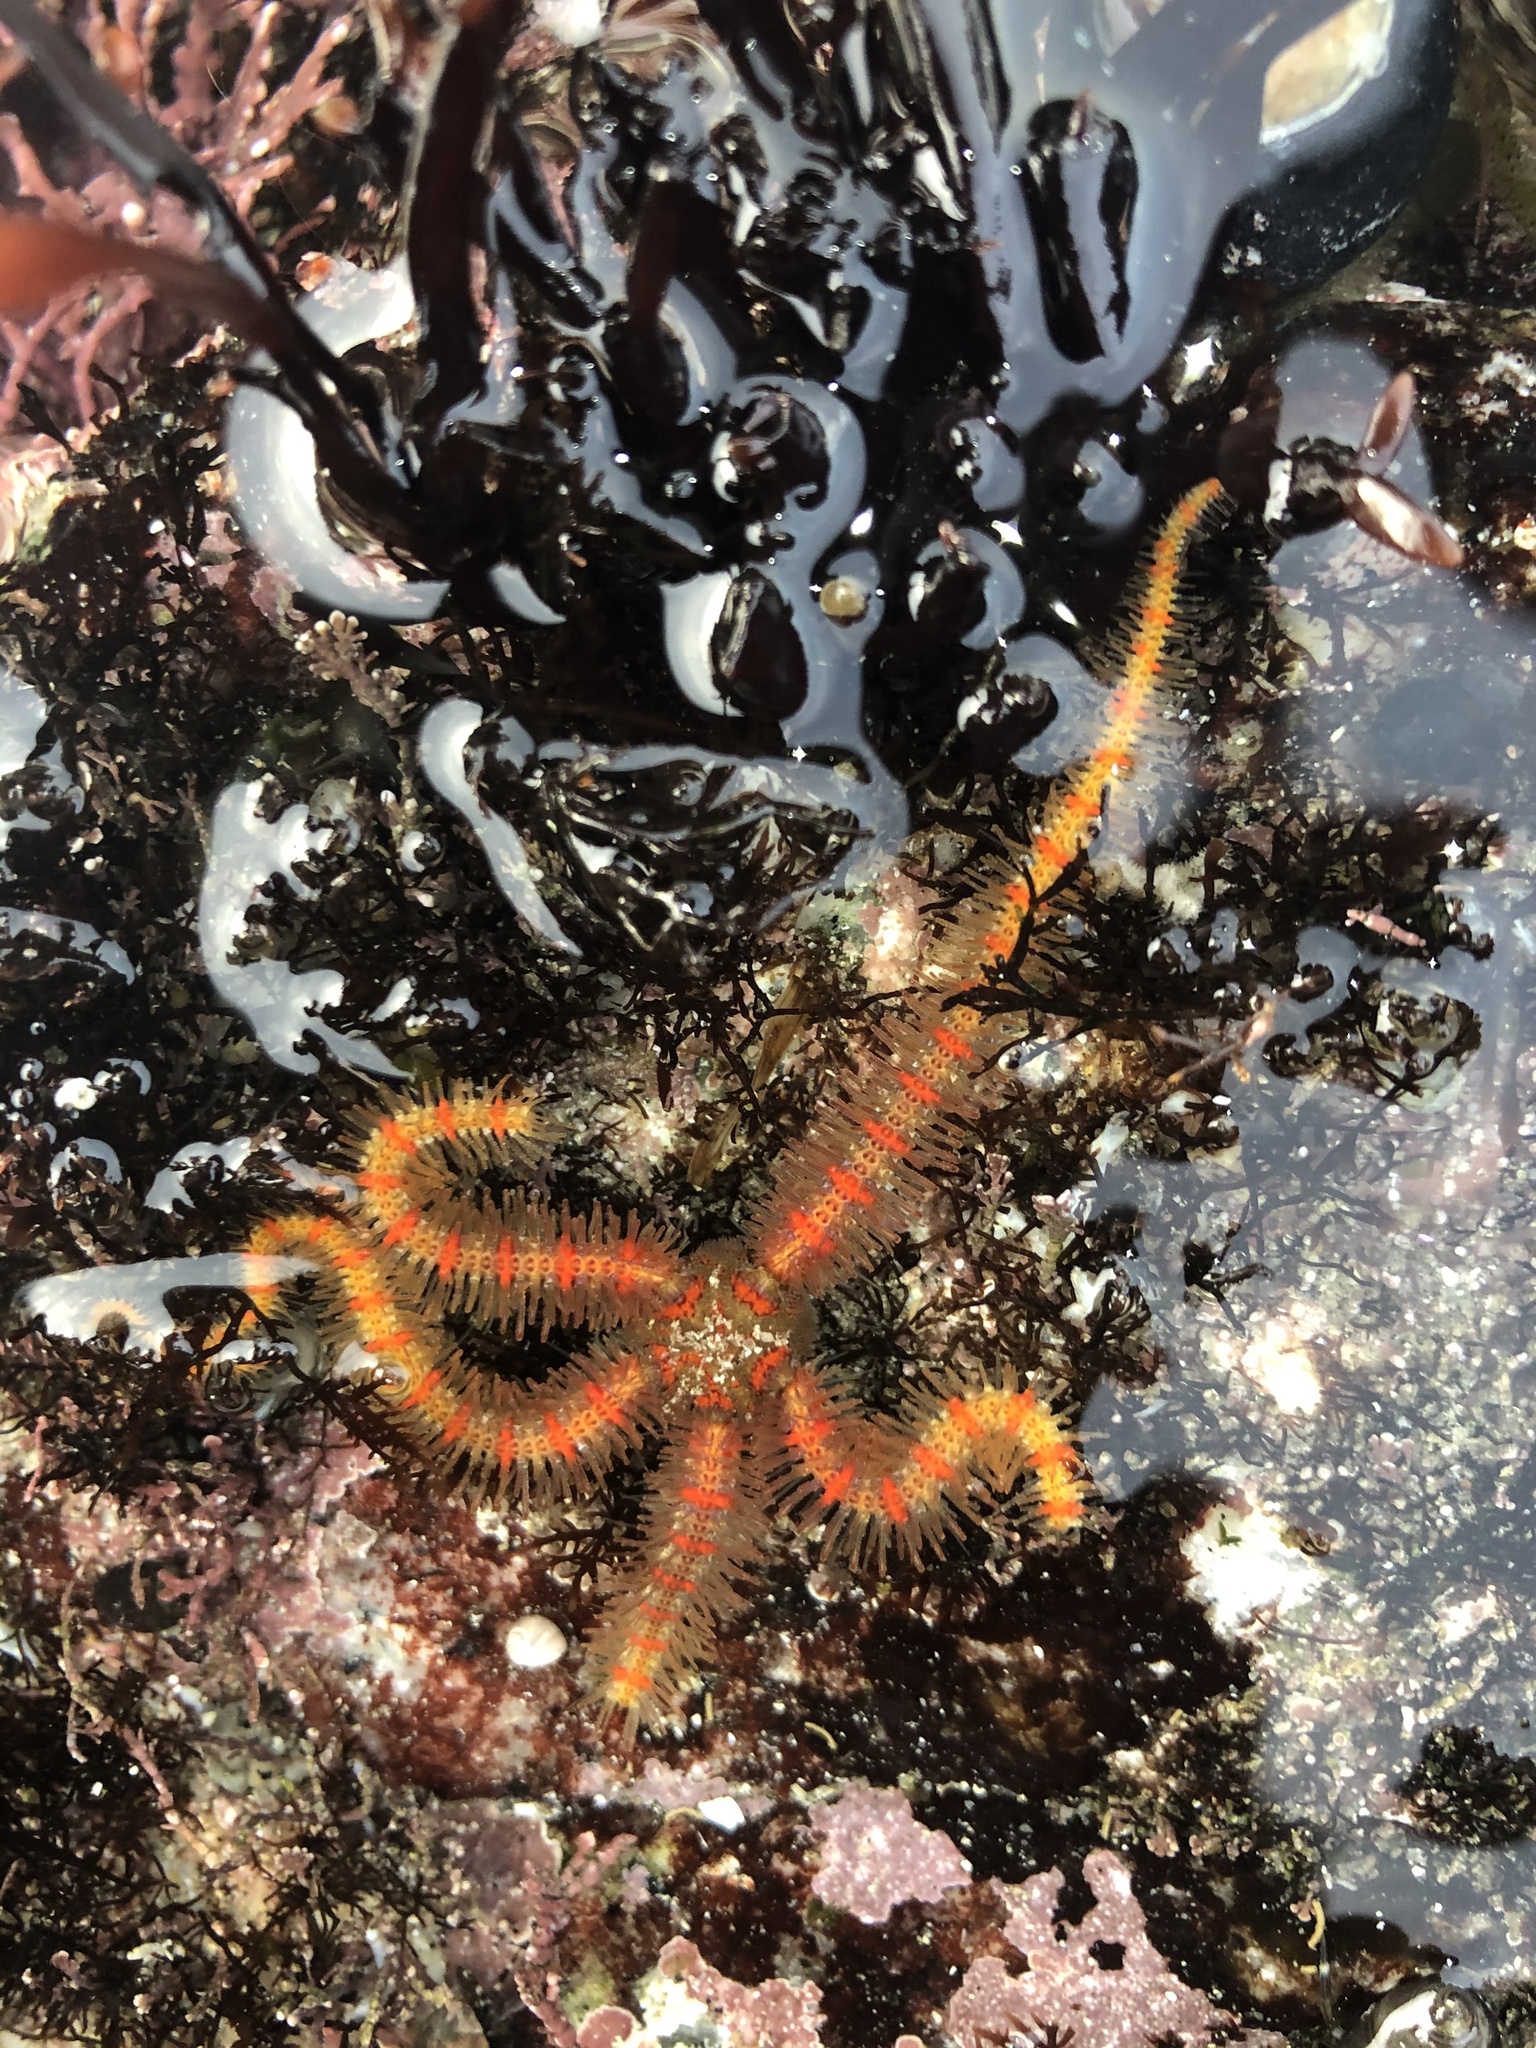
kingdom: Animalia
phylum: Echinodermata
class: Ophiuroidea
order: Amphilepidida
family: Ophiotrichidae
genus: Ophiothrix
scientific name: Ophiothrix spiculata
